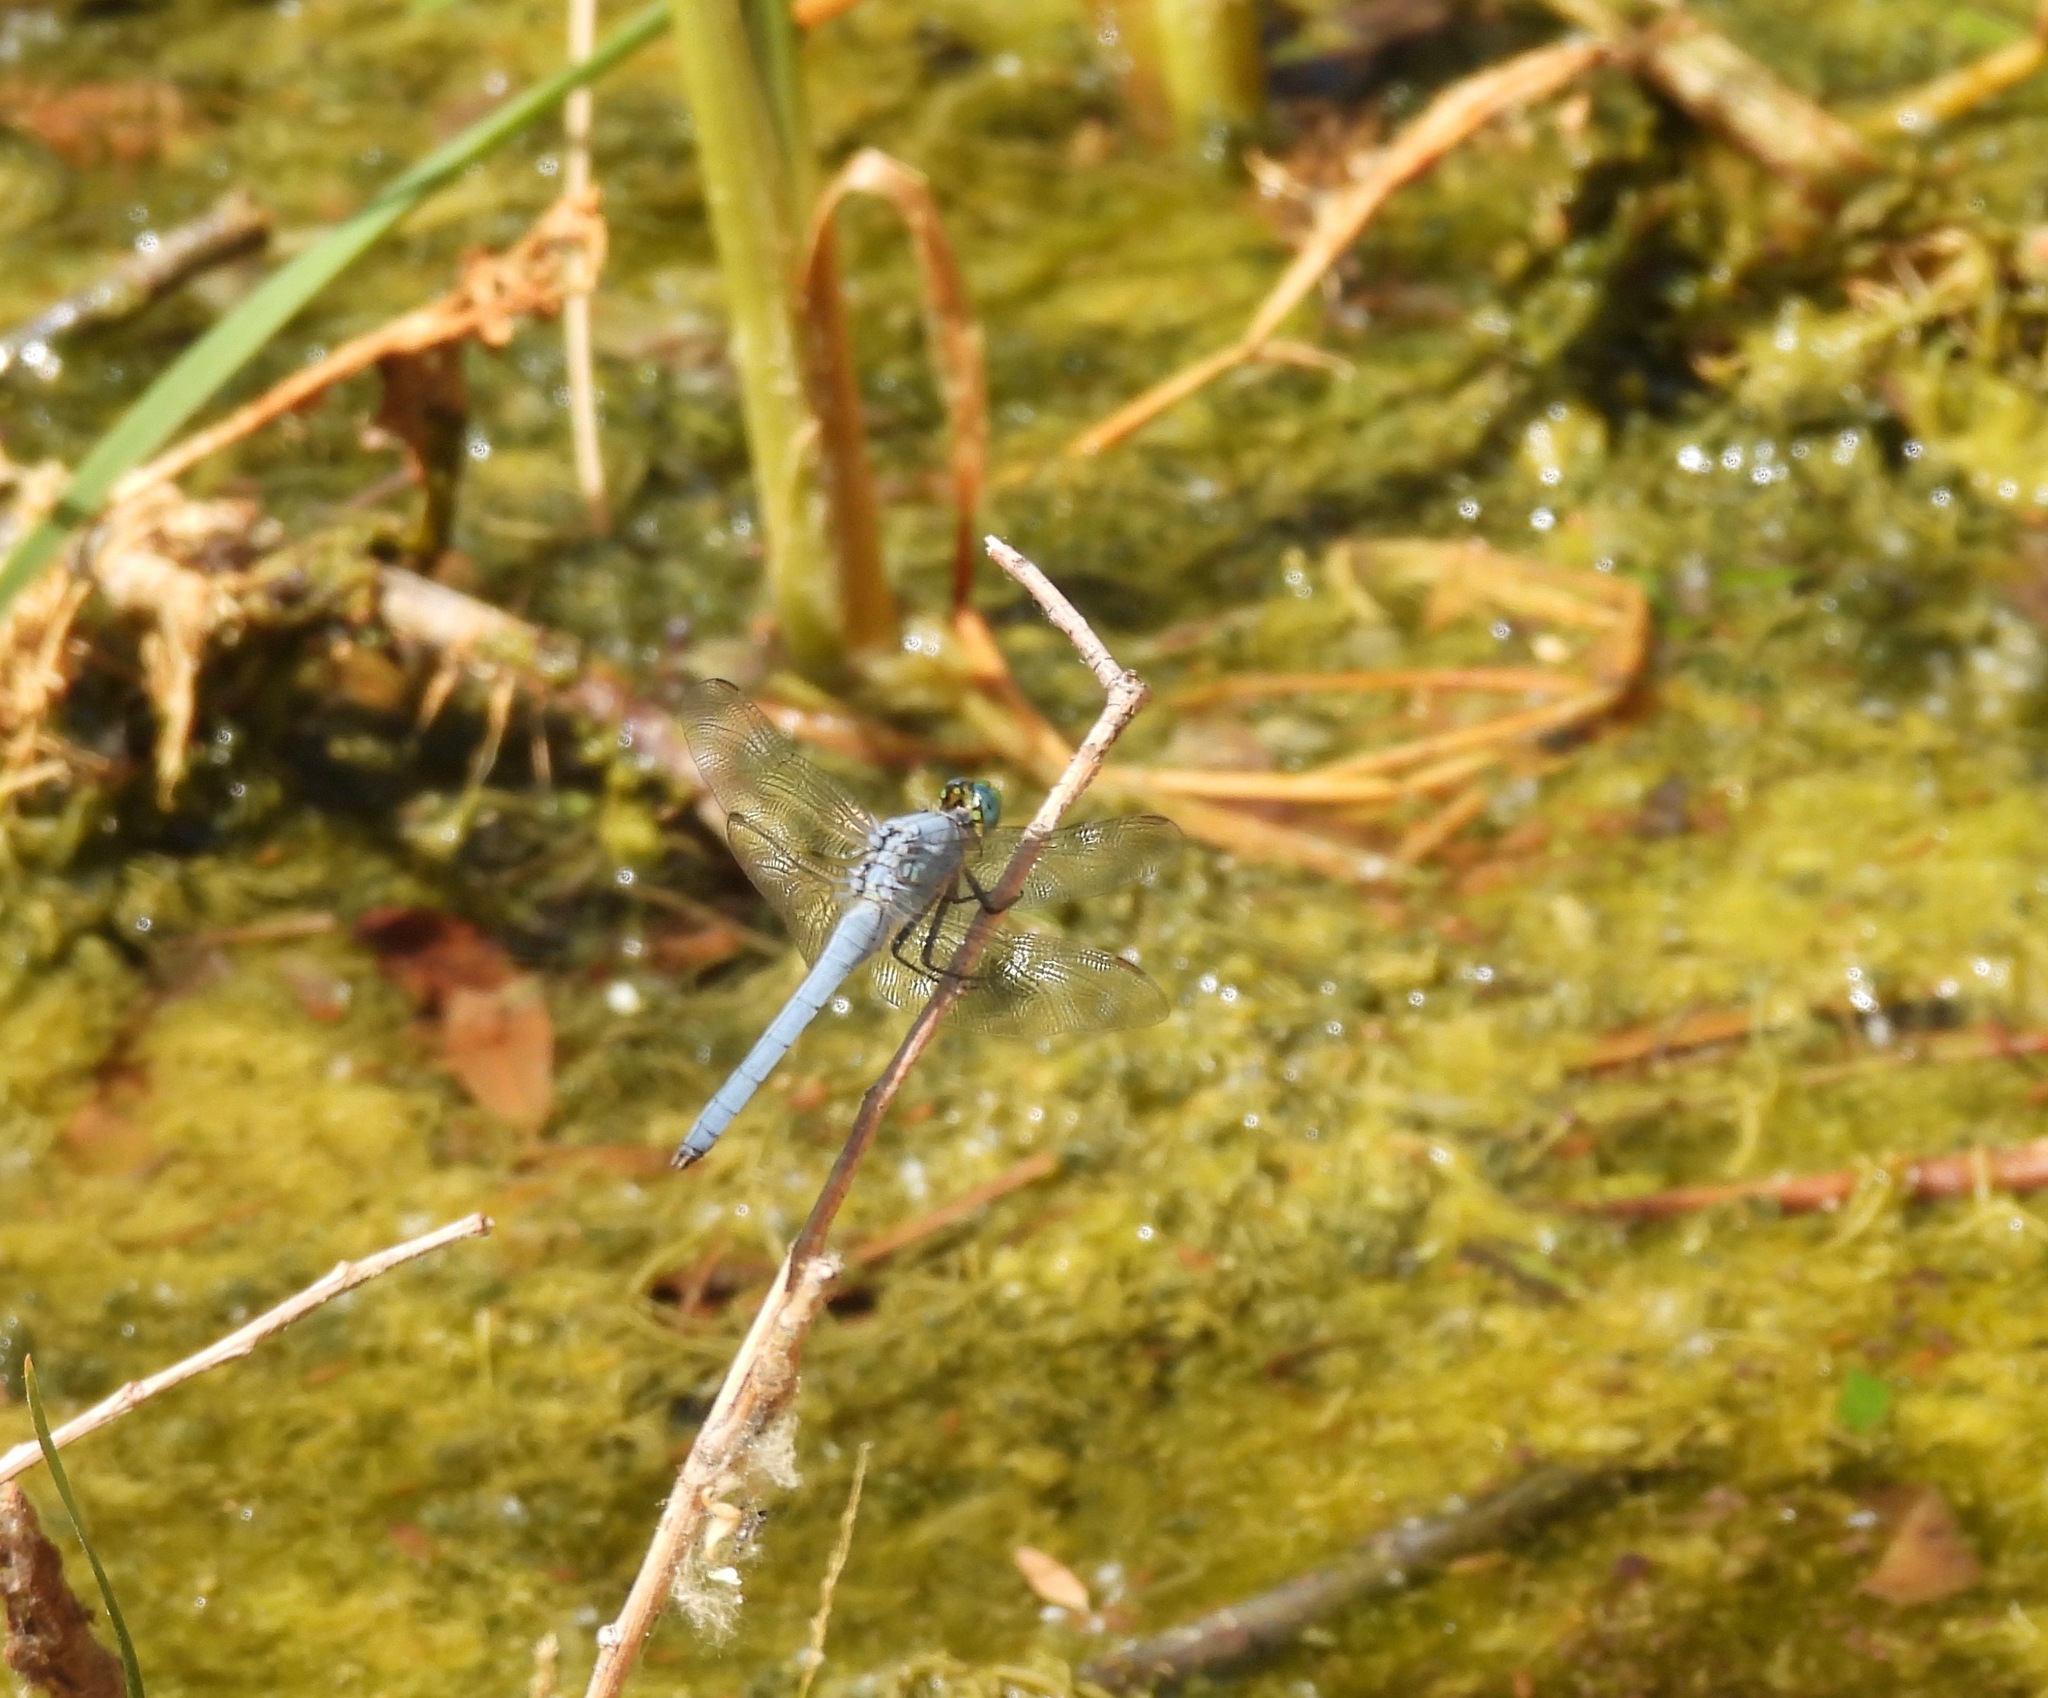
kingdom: Animalia
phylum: Arthropoda
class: Insecta
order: Odonata
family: Libellulidae
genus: Erythemis
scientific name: Erythemis simplicicollis
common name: Eastern pondhawk
